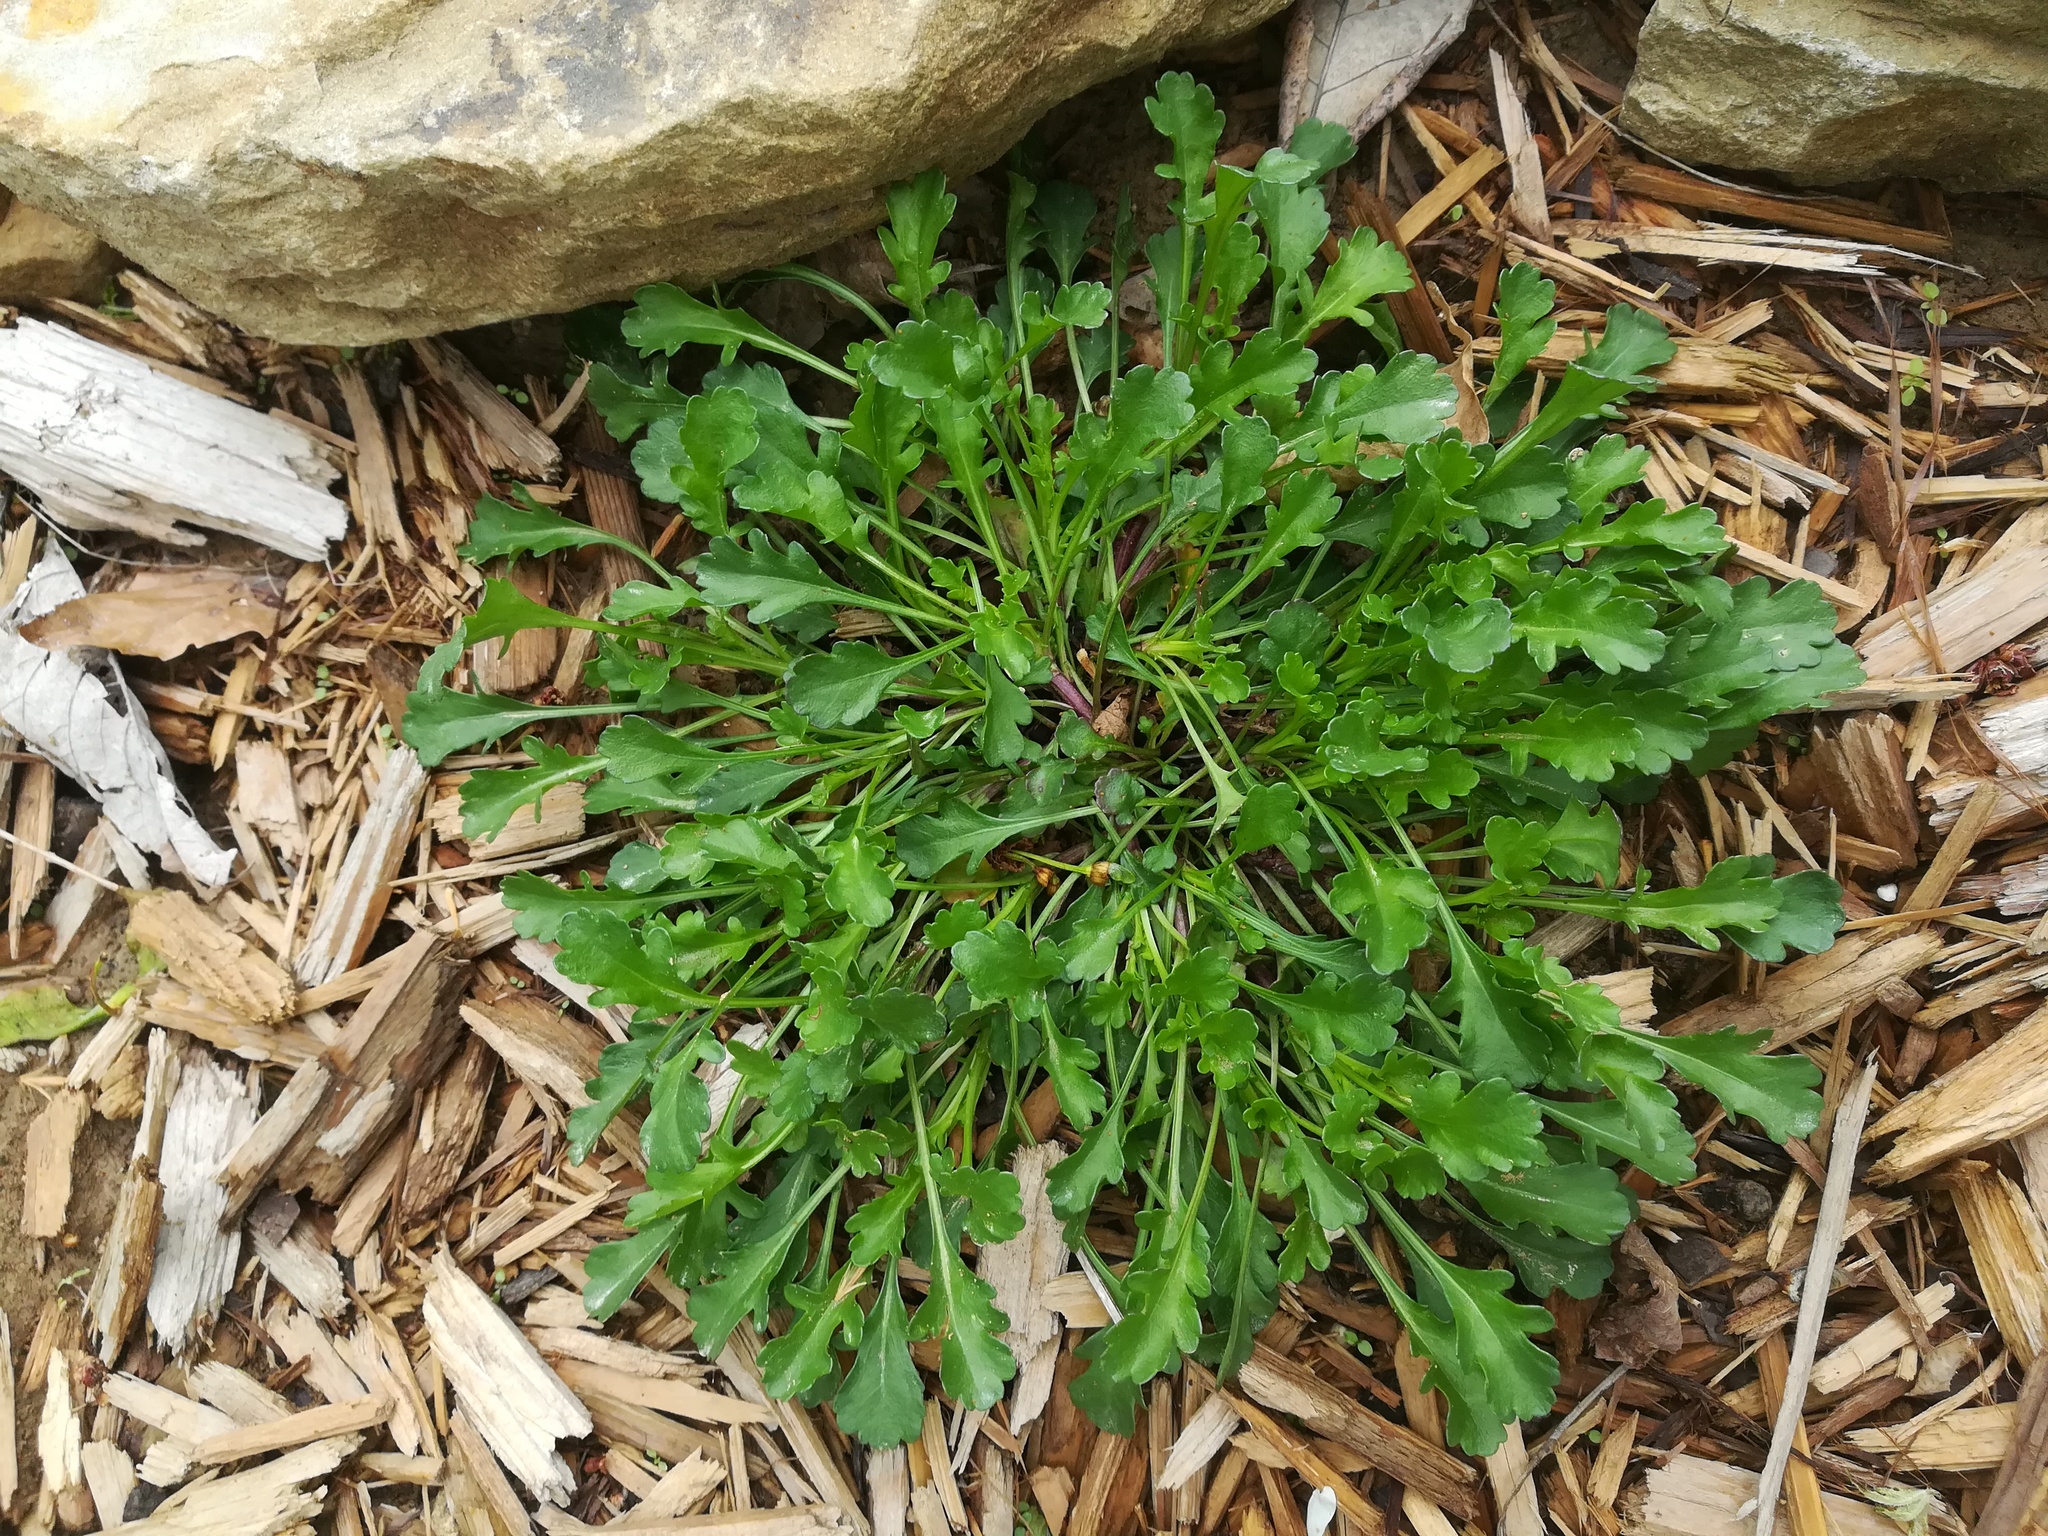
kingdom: Plantae
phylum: Tracheophyta
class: Magnoliopsida
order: Asterales
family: Asteraceae
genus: Leucanthemum
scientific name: Leucanthemum vulgare
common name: Oxeye daisy
